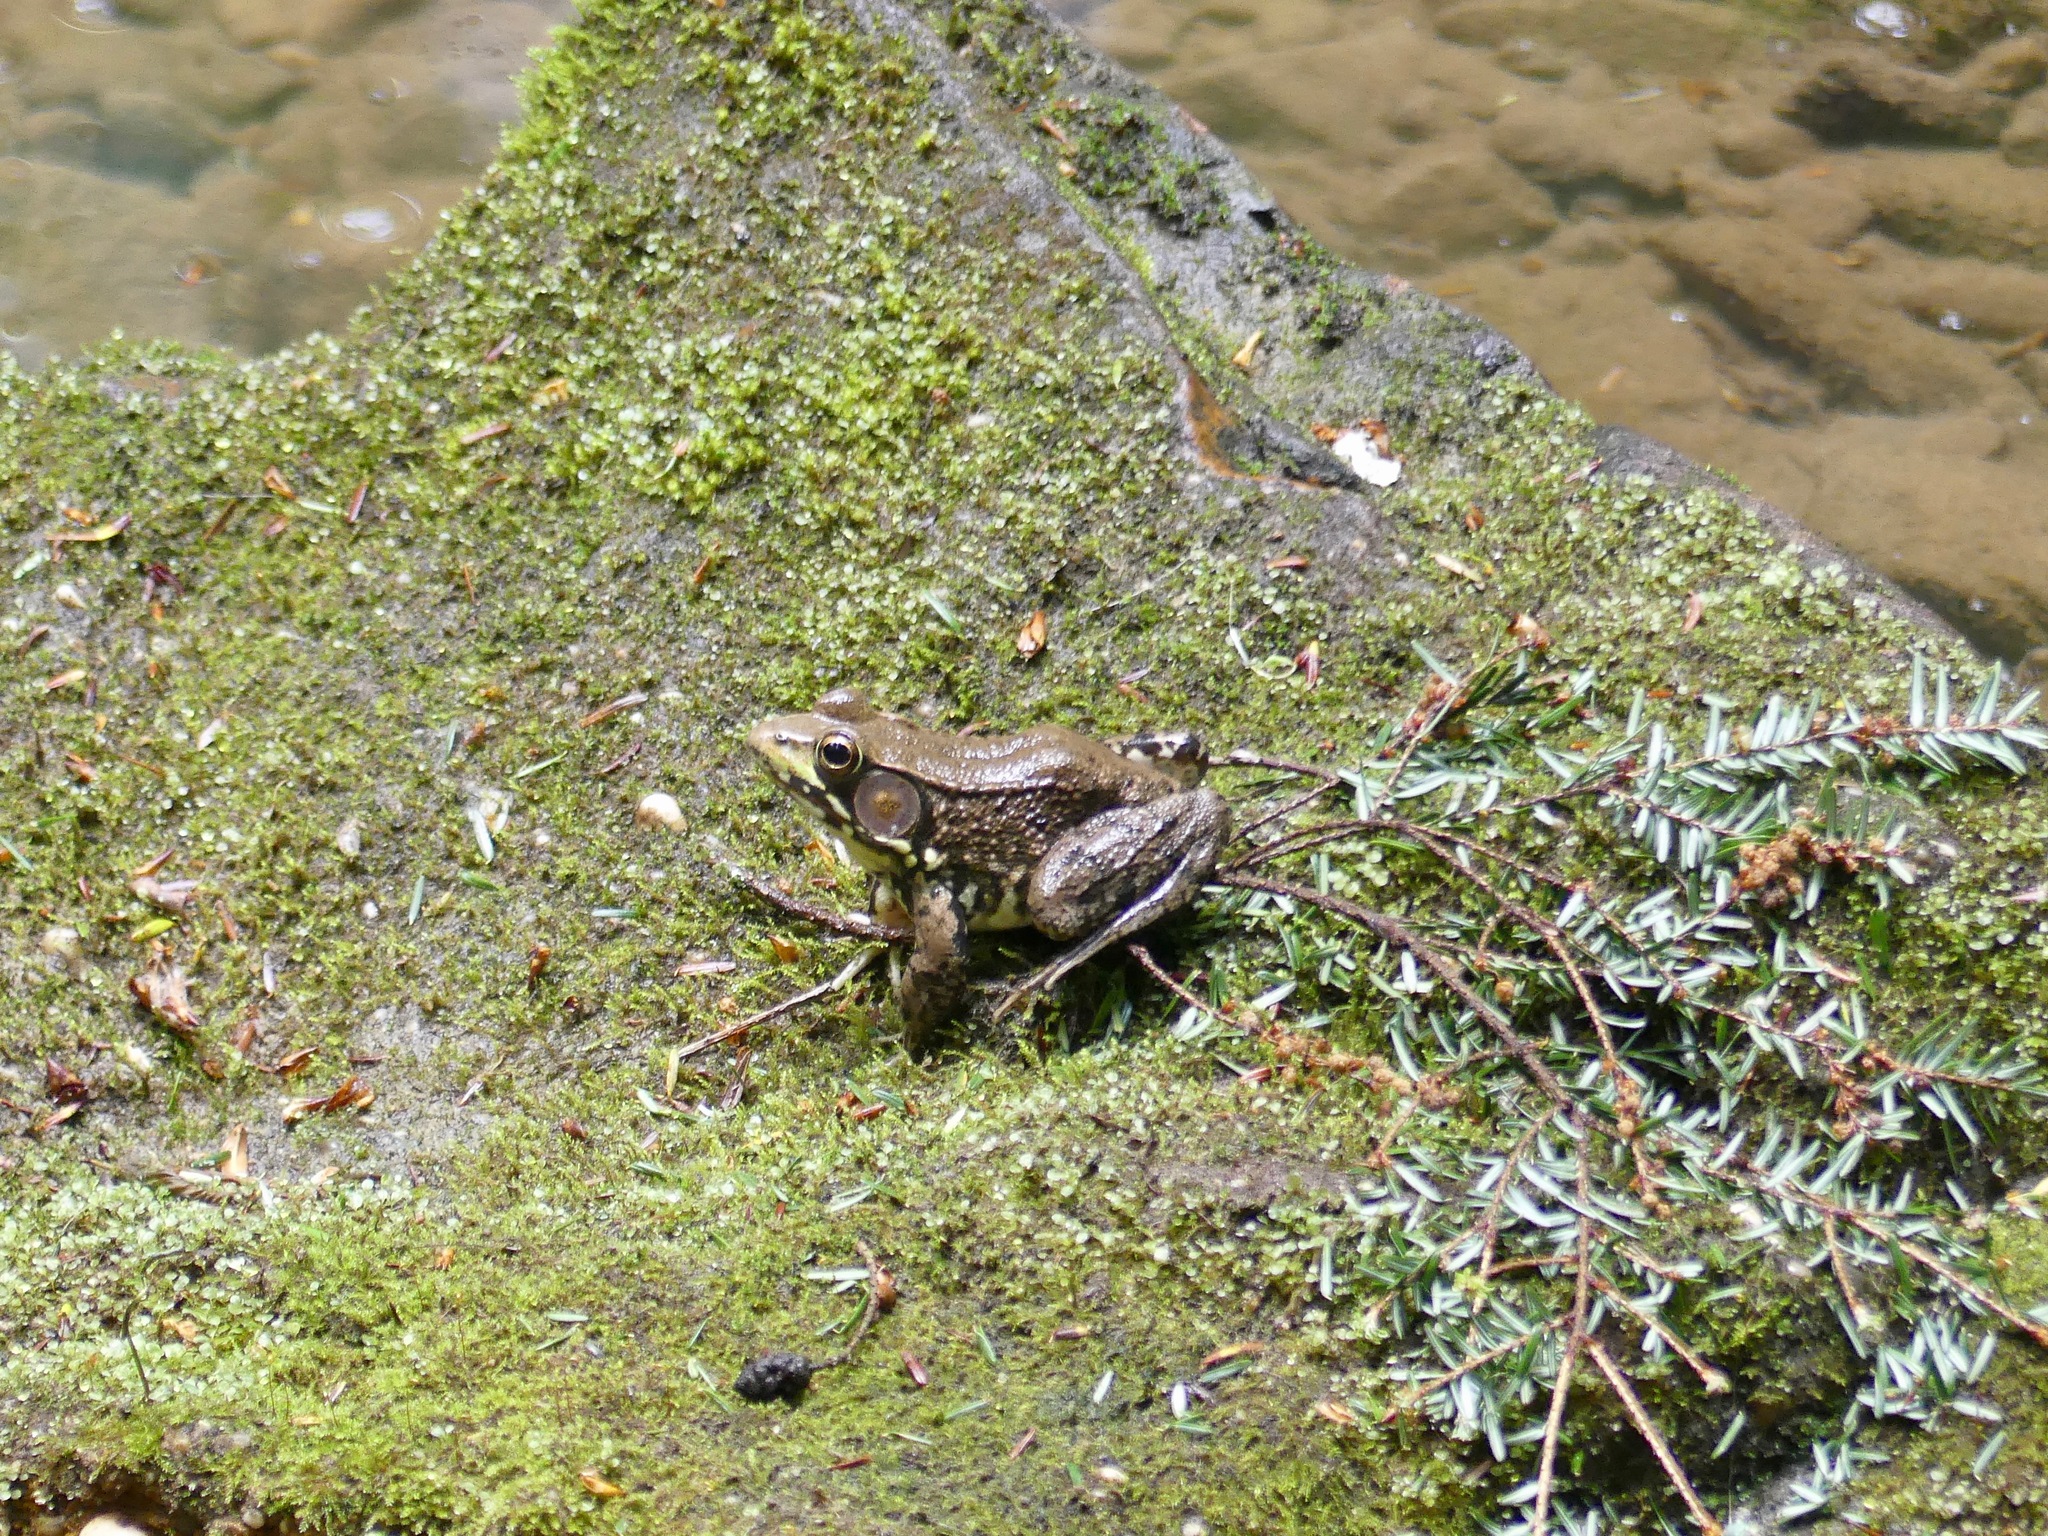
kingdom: Animalia
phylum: Chordata
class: Amphibia
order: Anura
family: Ranidae
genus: Lithobates
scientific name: Lithobates clamitans
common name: Green frog
